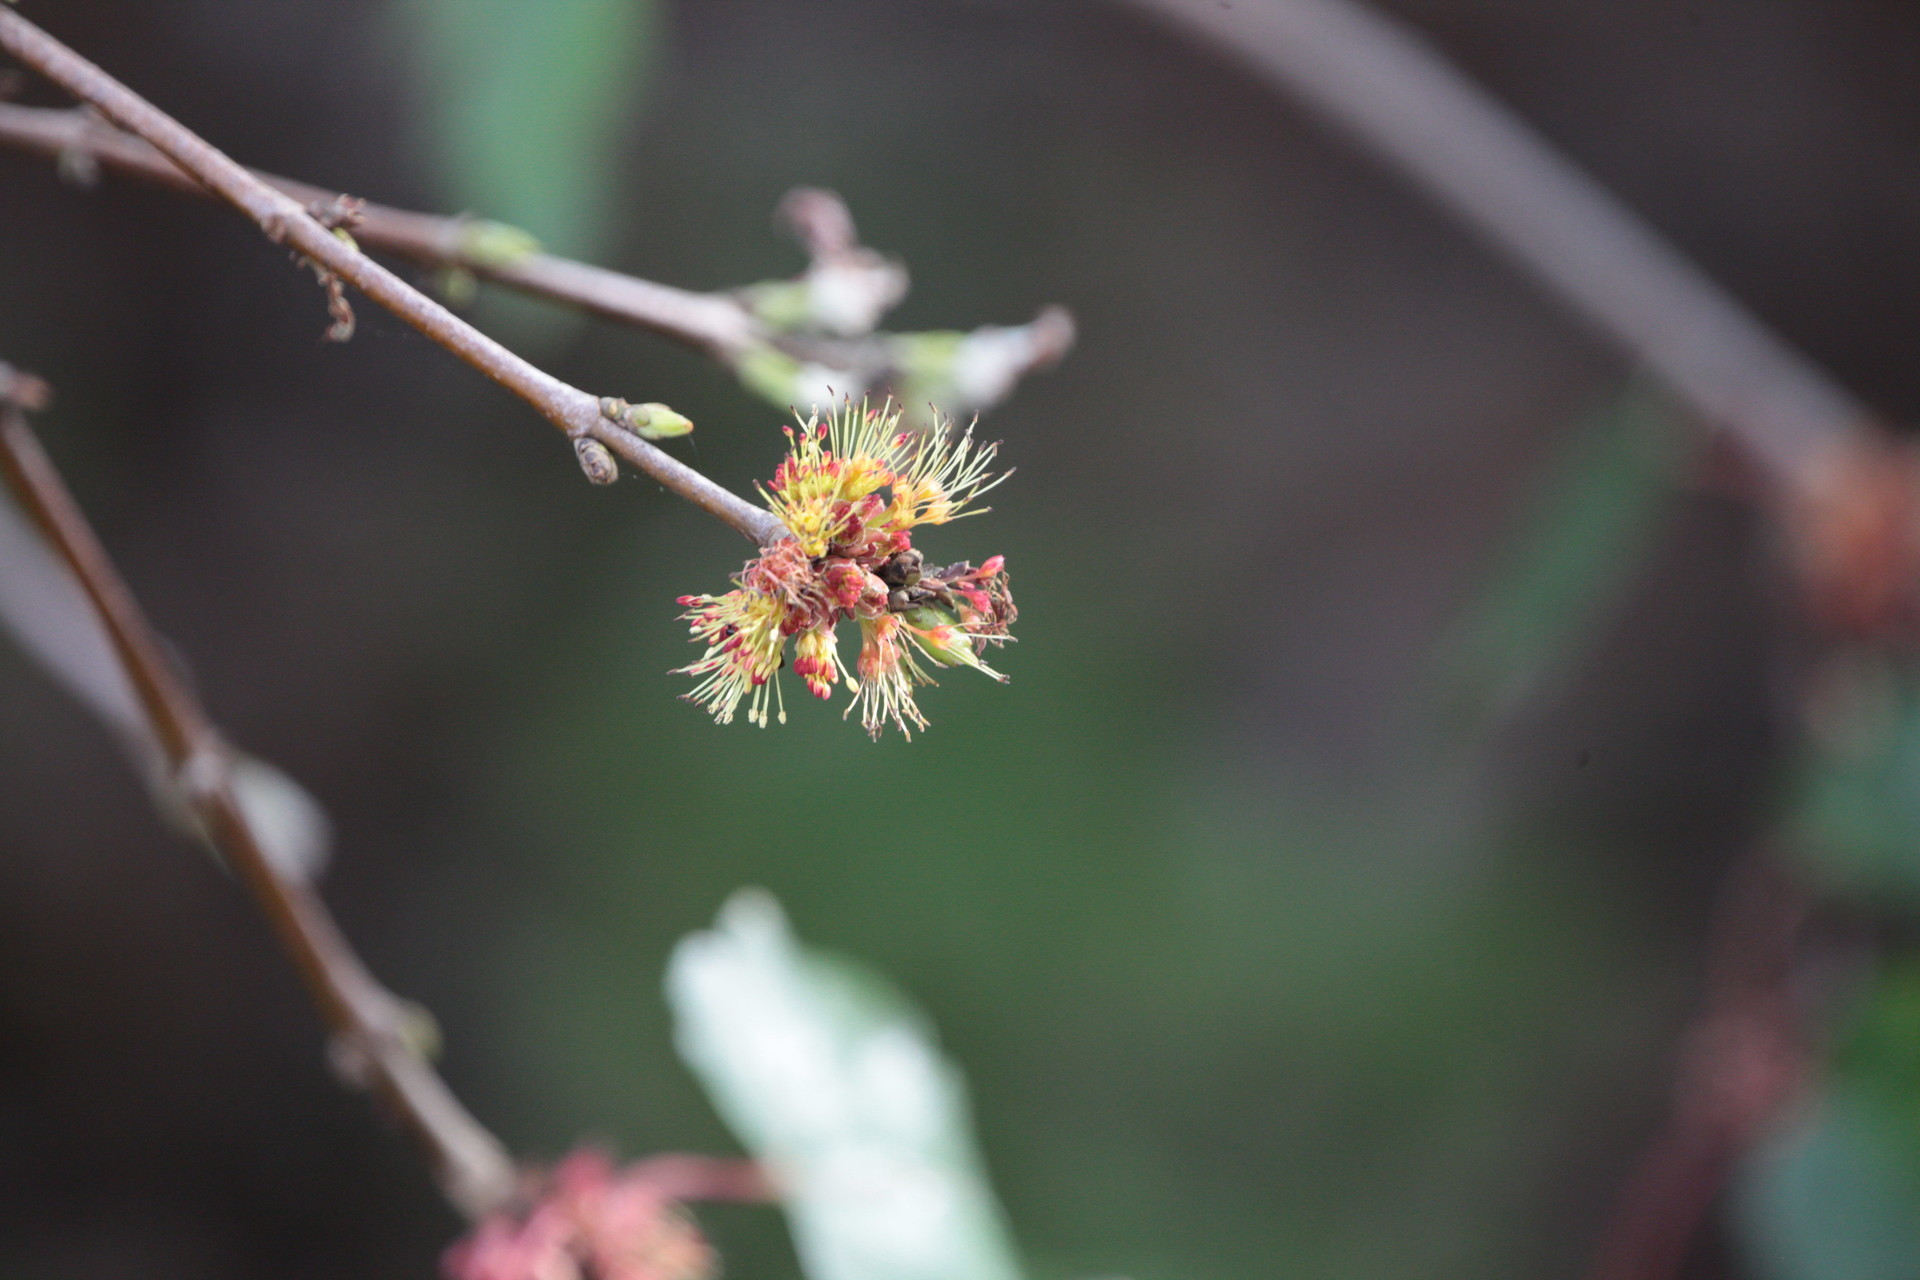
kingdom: Plantae
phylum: Tracheophyta
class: Magnoliopsida
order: Sapindales
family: Sapindaceae
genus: Acer
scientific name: Acer rubrum
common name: Red maple
